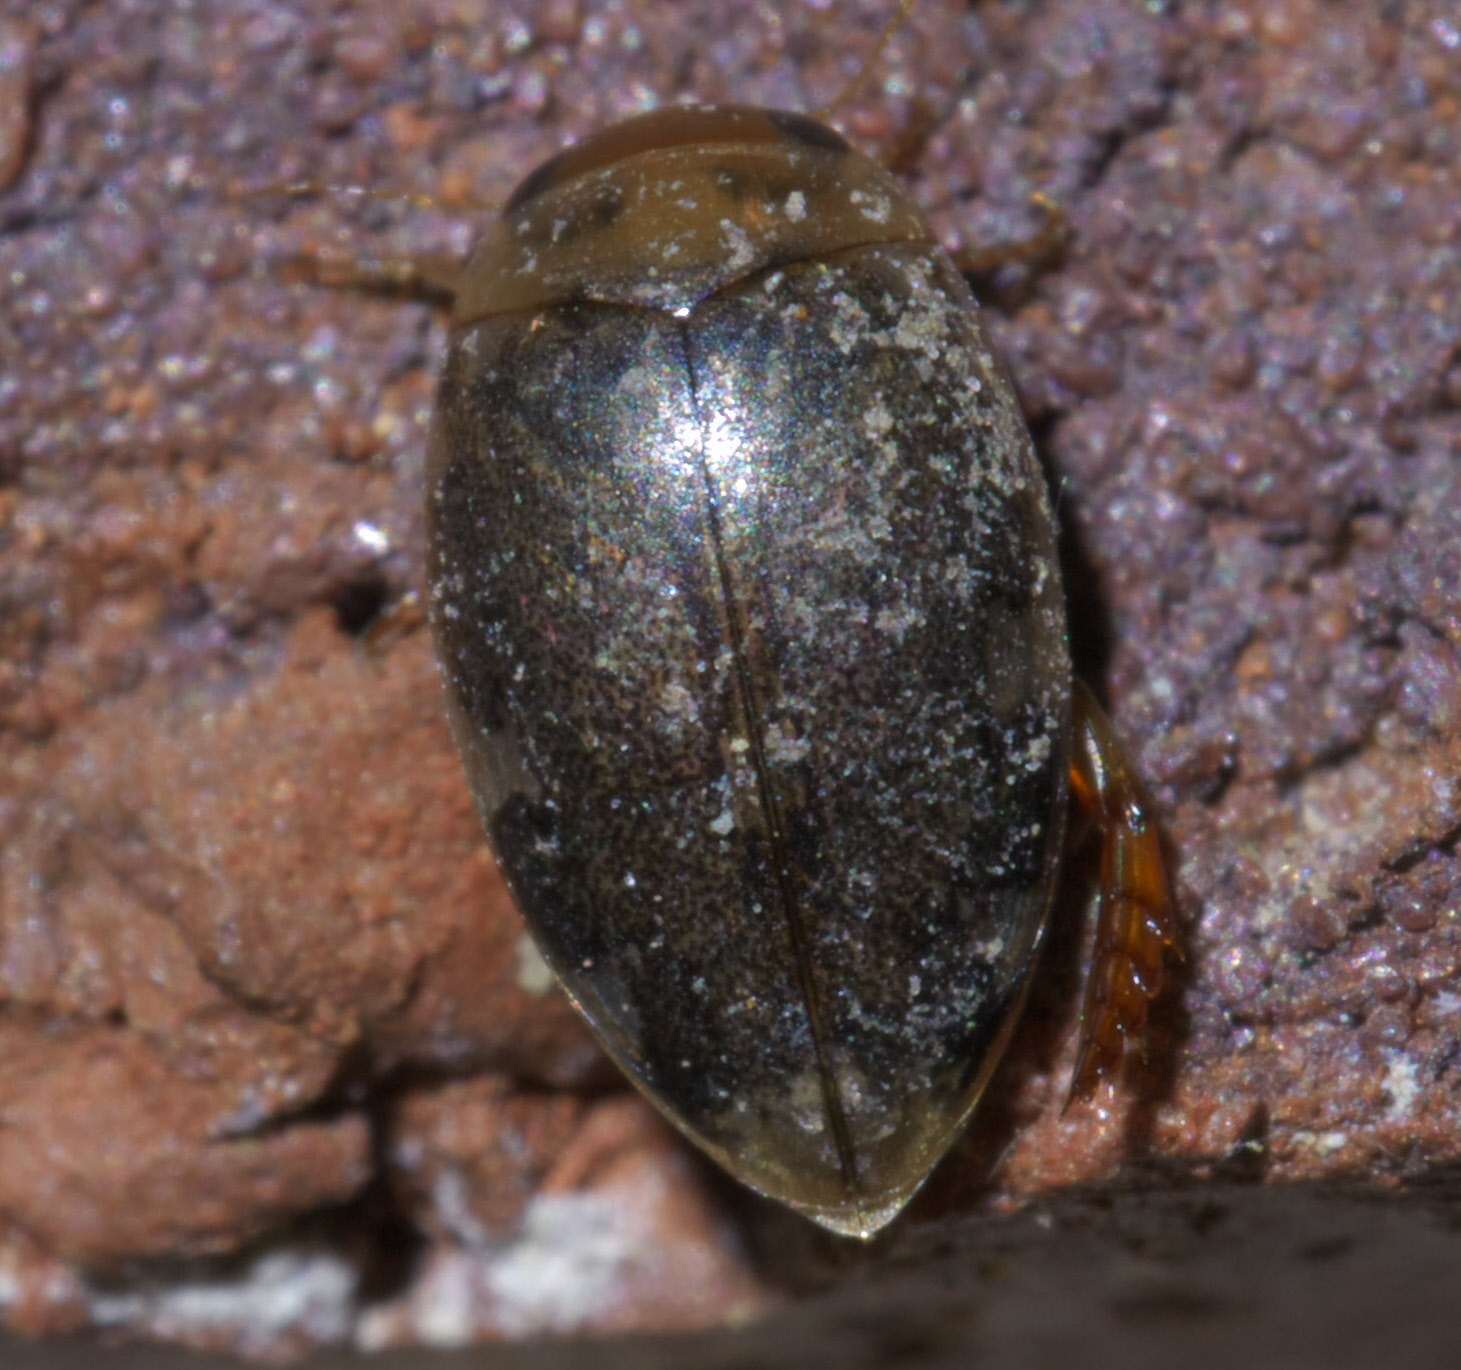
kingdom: Animalia
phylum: Arthropoda
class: Insecta
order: Coleoptera
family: Dytiscidae
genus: Laccophilus
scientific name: Laccophilus proximus
